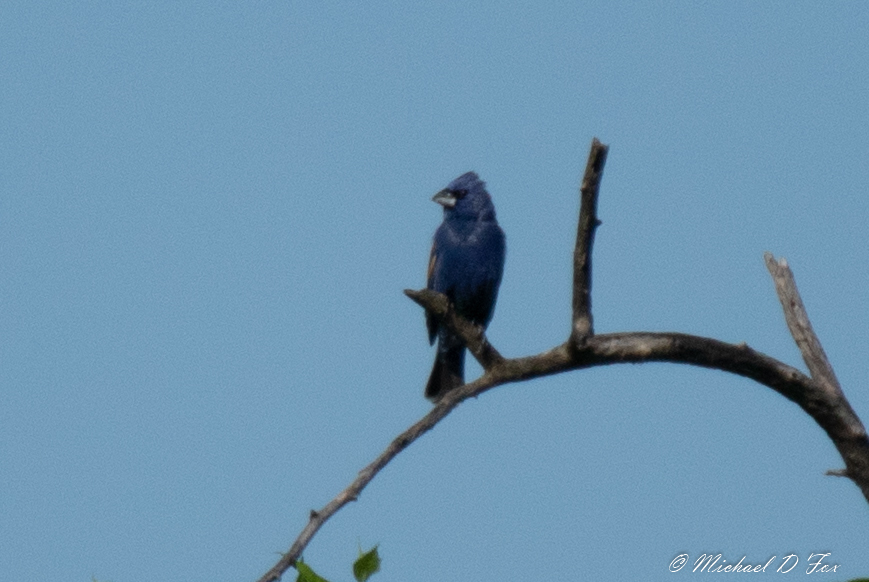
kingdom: Animalia
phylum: Chordata
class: Aves
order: Passeriformes
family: Cardinalidae
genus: Passerina
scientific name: Passerina caerulea
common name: Blue grosbeak
